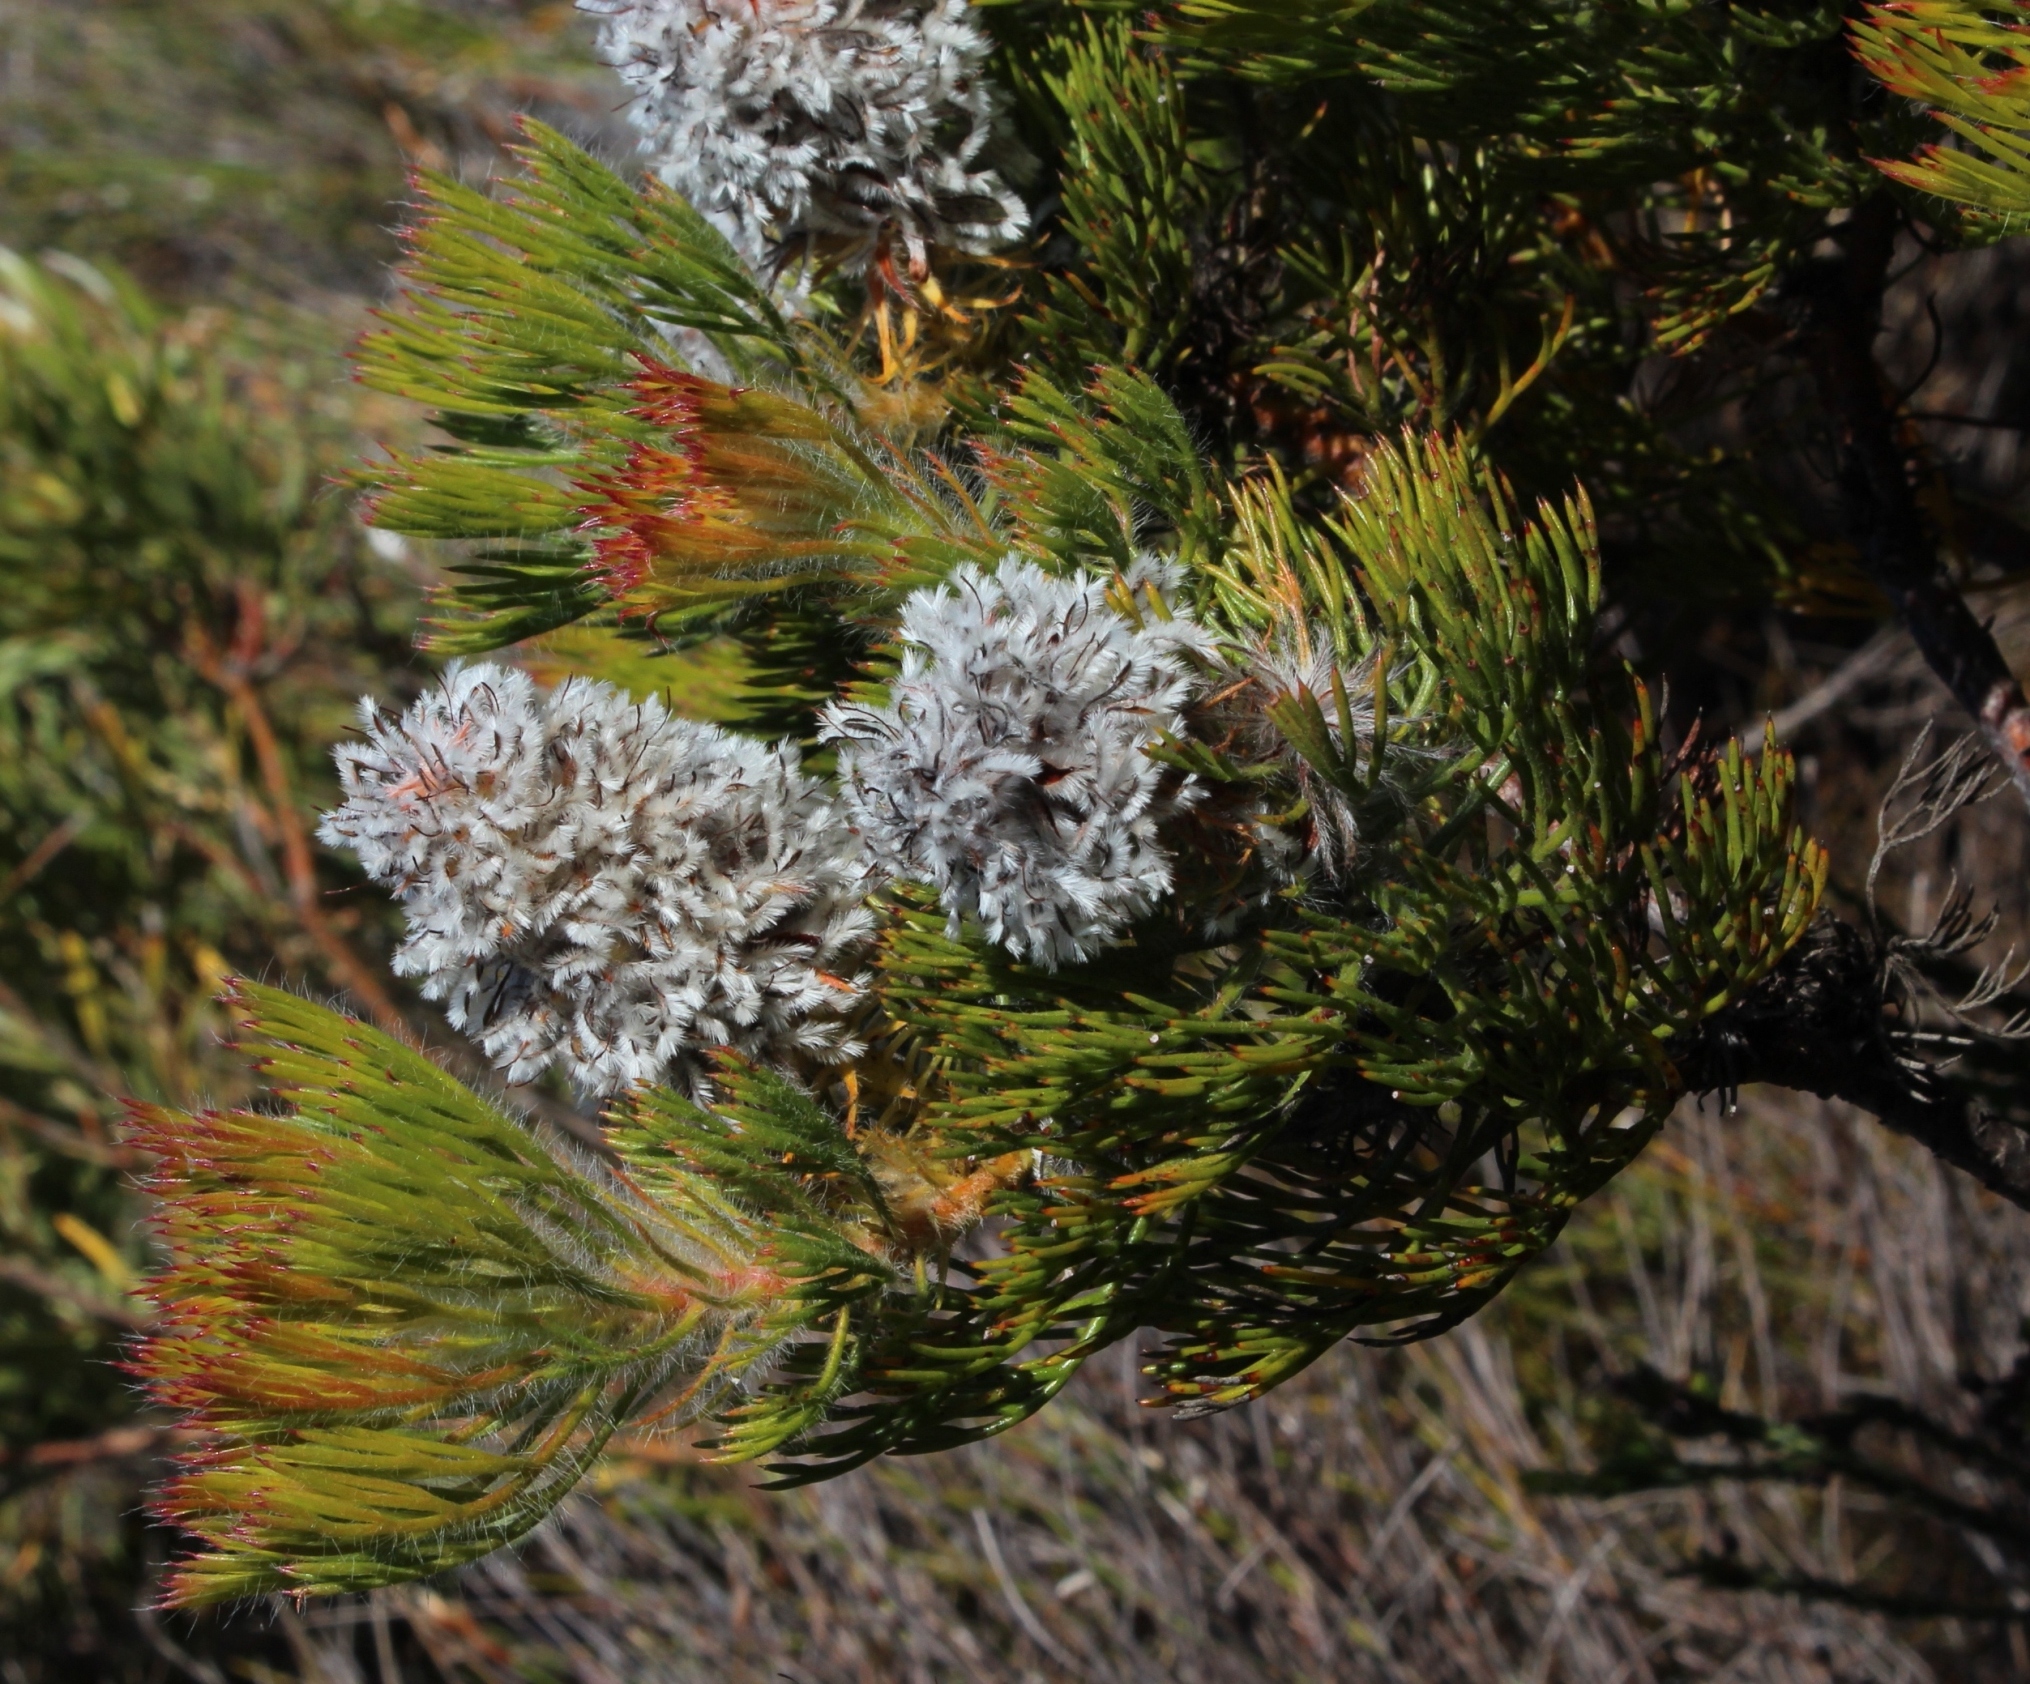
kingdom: Plantae
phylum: Tracheophyta
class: Magnoliopsida
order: Proteales
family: Proteaceae
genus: Serruria
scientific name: Serruria hirsuta
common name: Swartkops spiderhead
